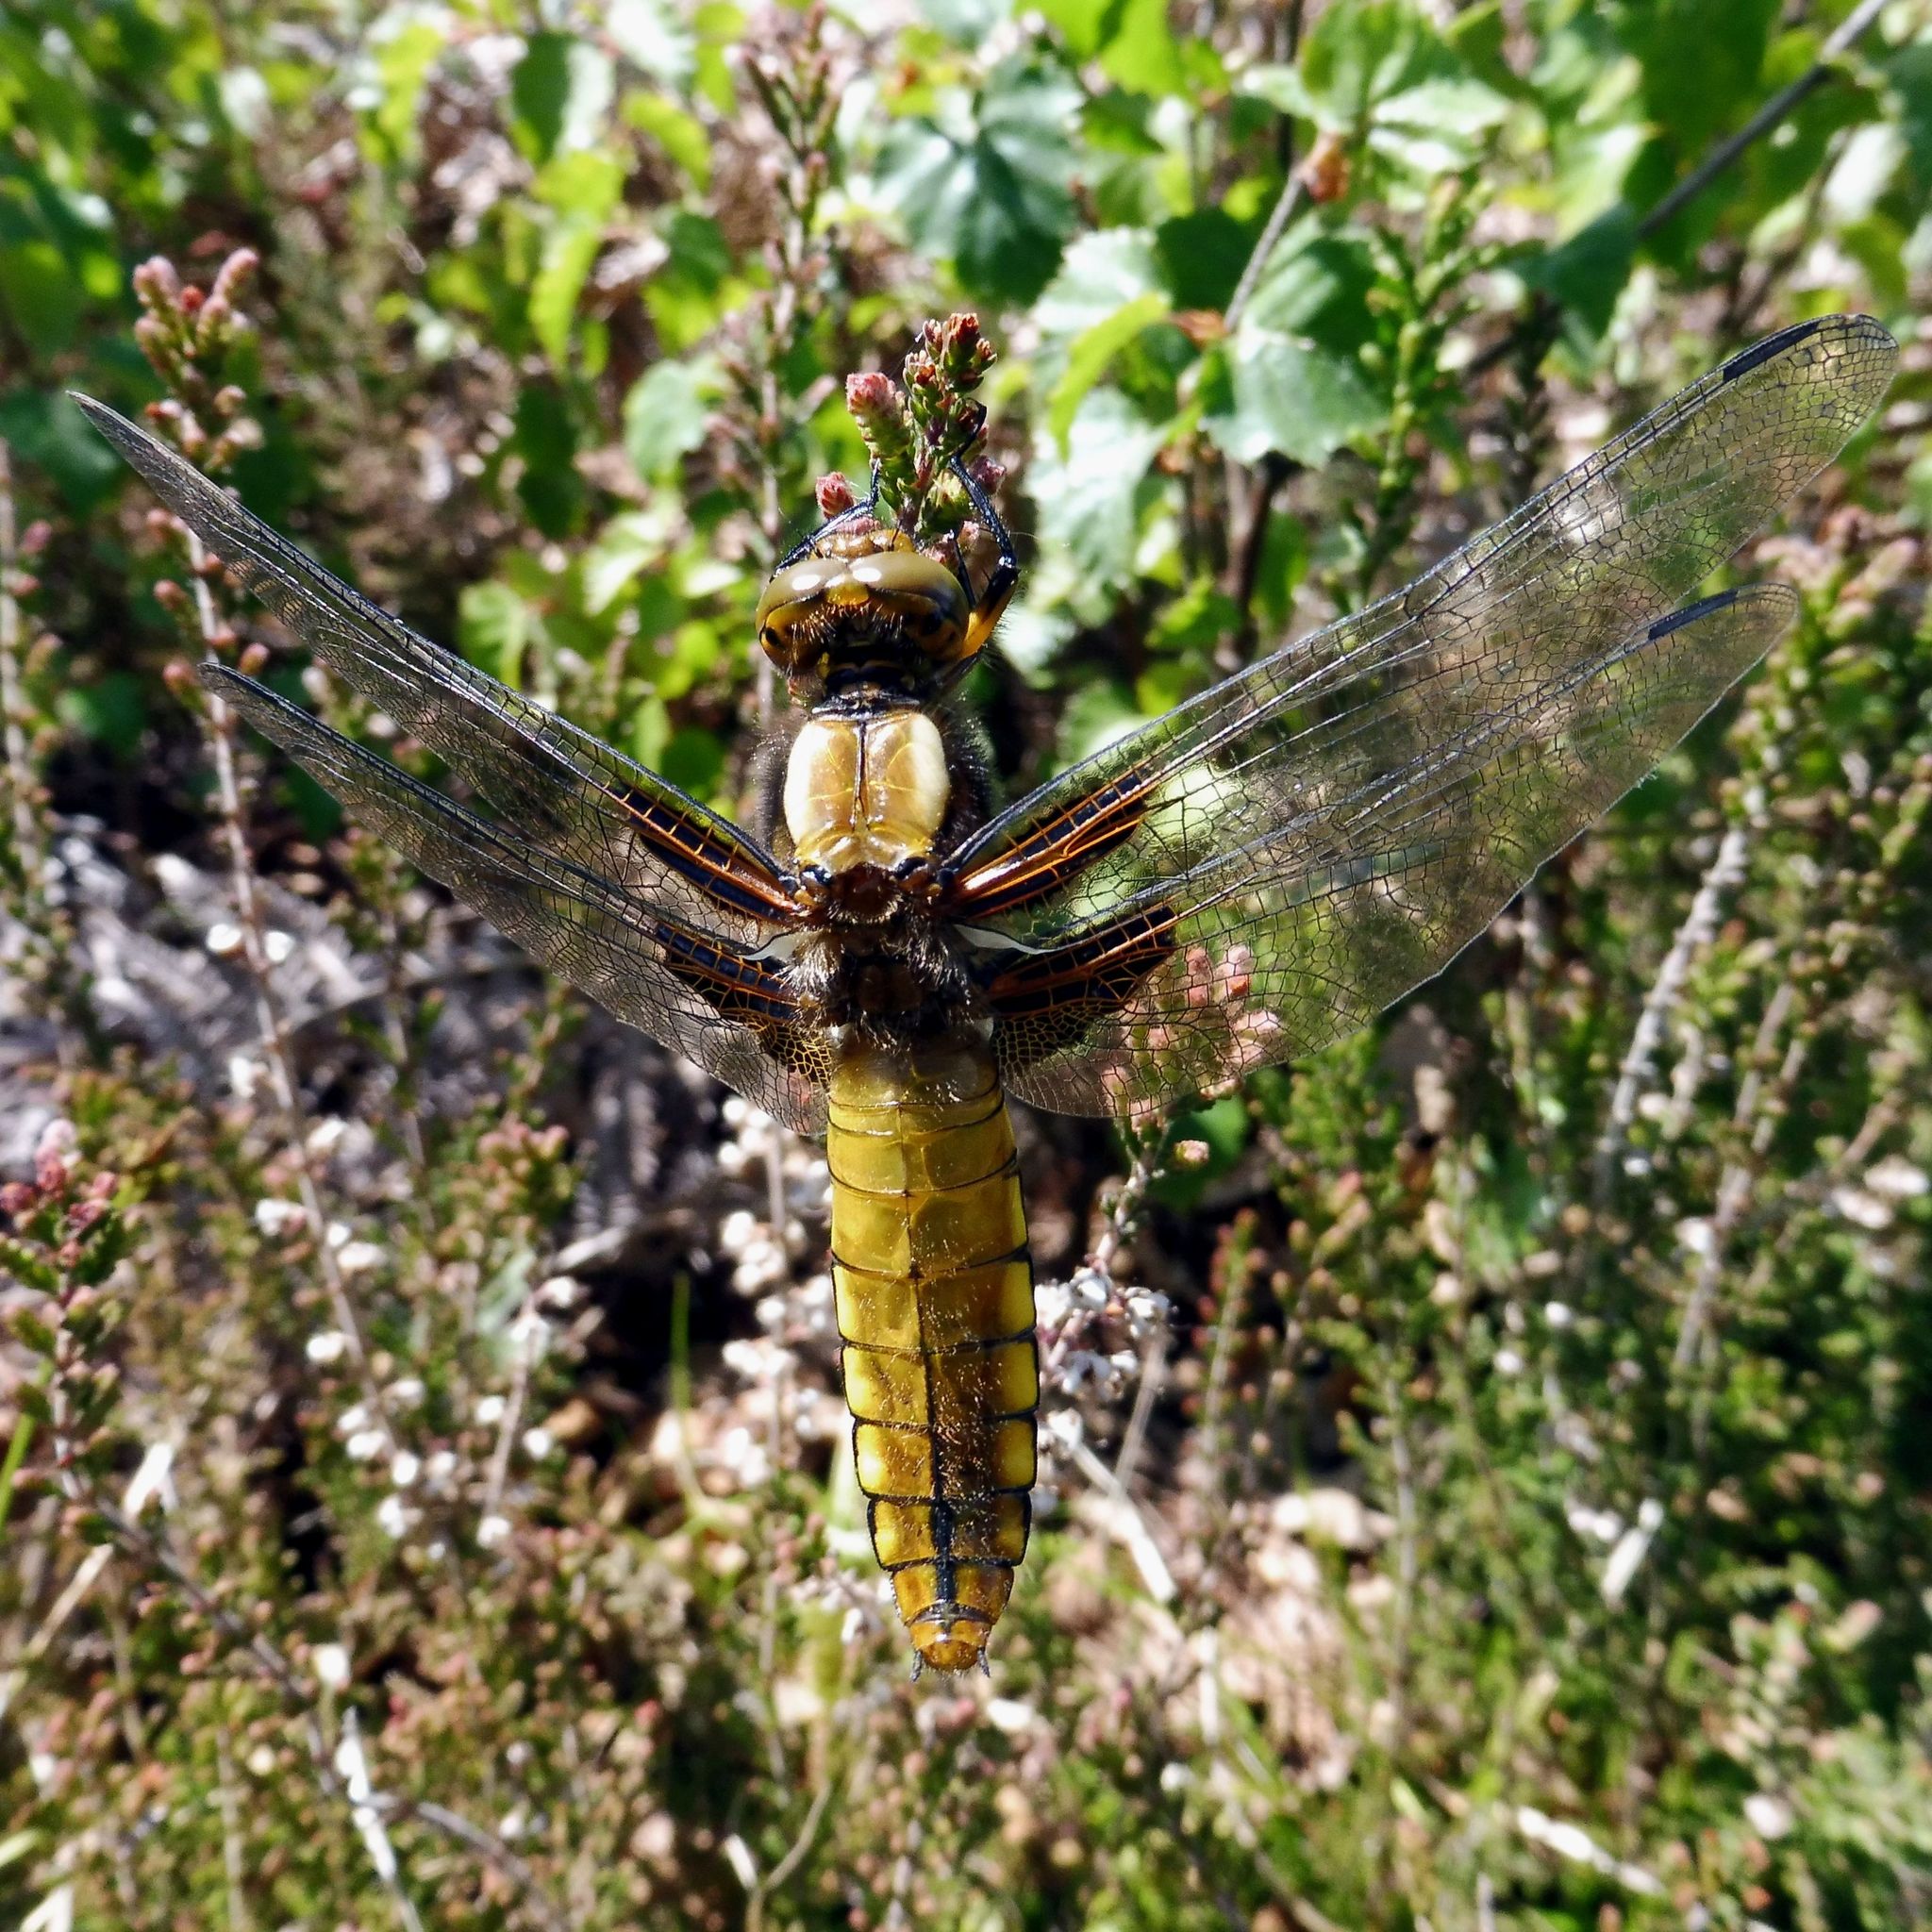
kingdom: Animalia
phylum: Arthropoda
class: Insecta
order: Odonata
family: Libellulidae
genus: Libellula
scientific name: Libellula depressa
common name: Broad-bodied chaser
